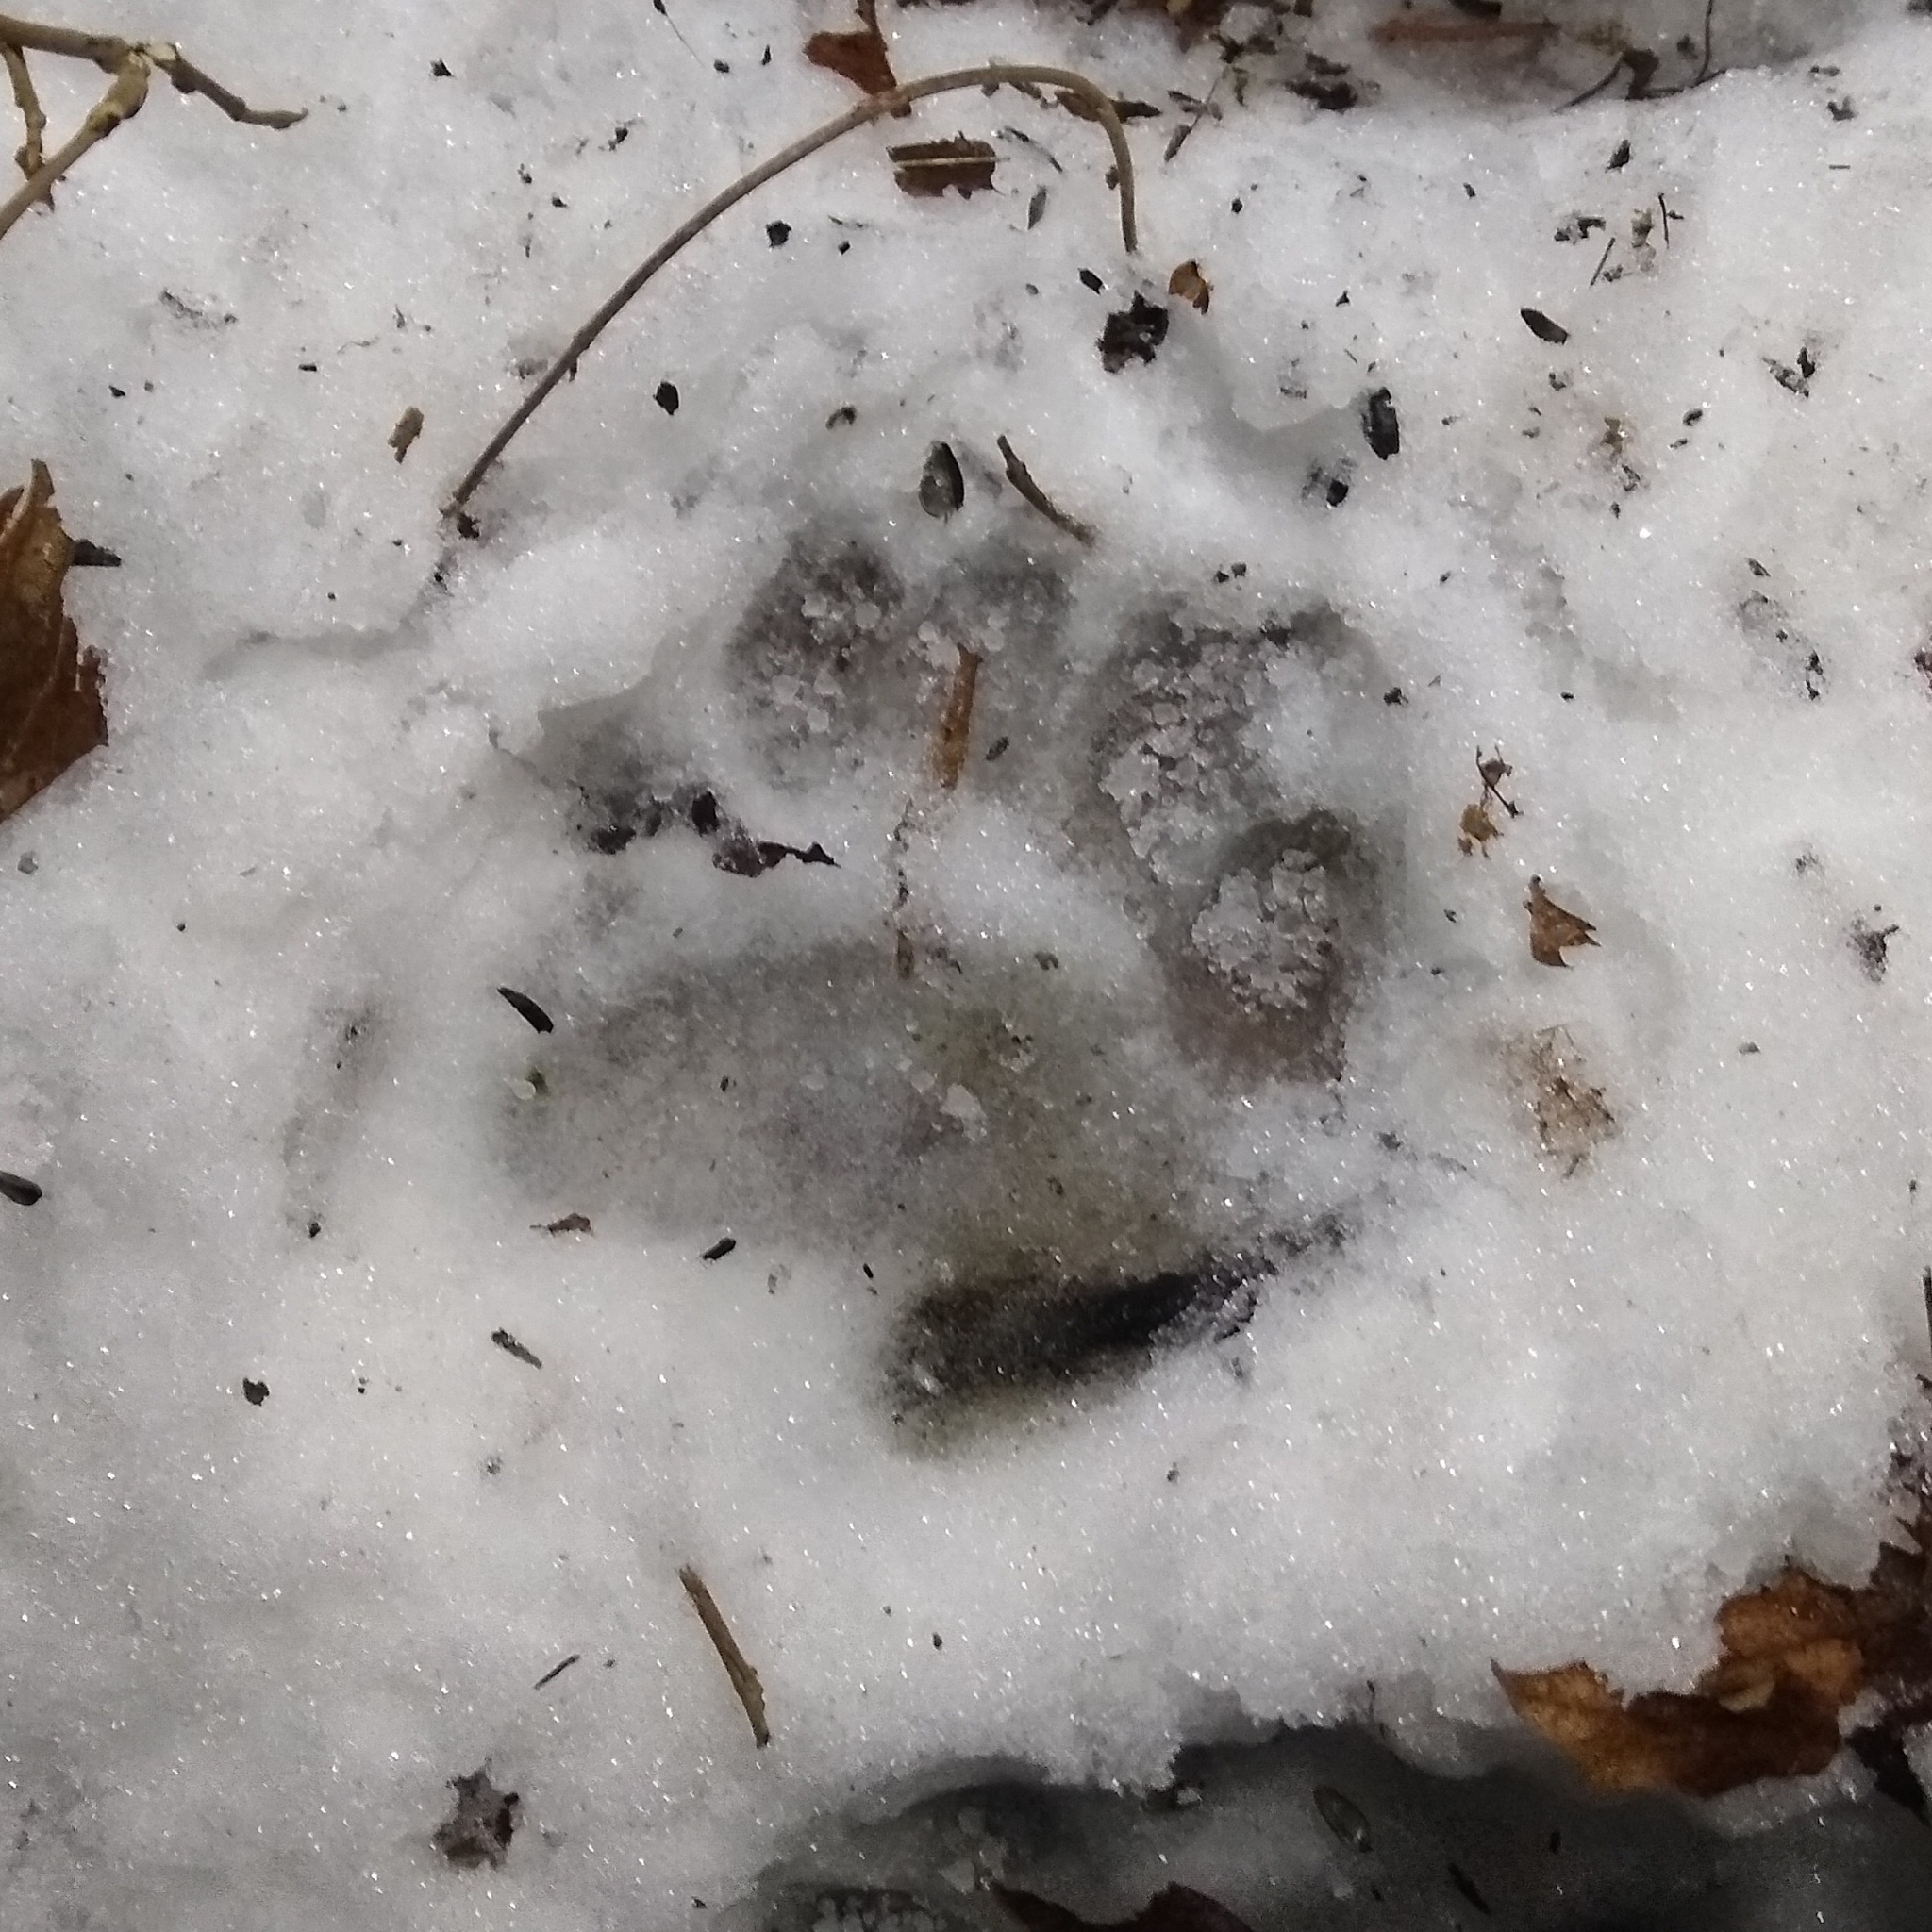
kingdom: Animalia
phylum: Chordata
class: Mammalia
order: Carnivora
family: Ursidae
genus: Ursus
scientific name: Ursus americanus
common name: American black bear
